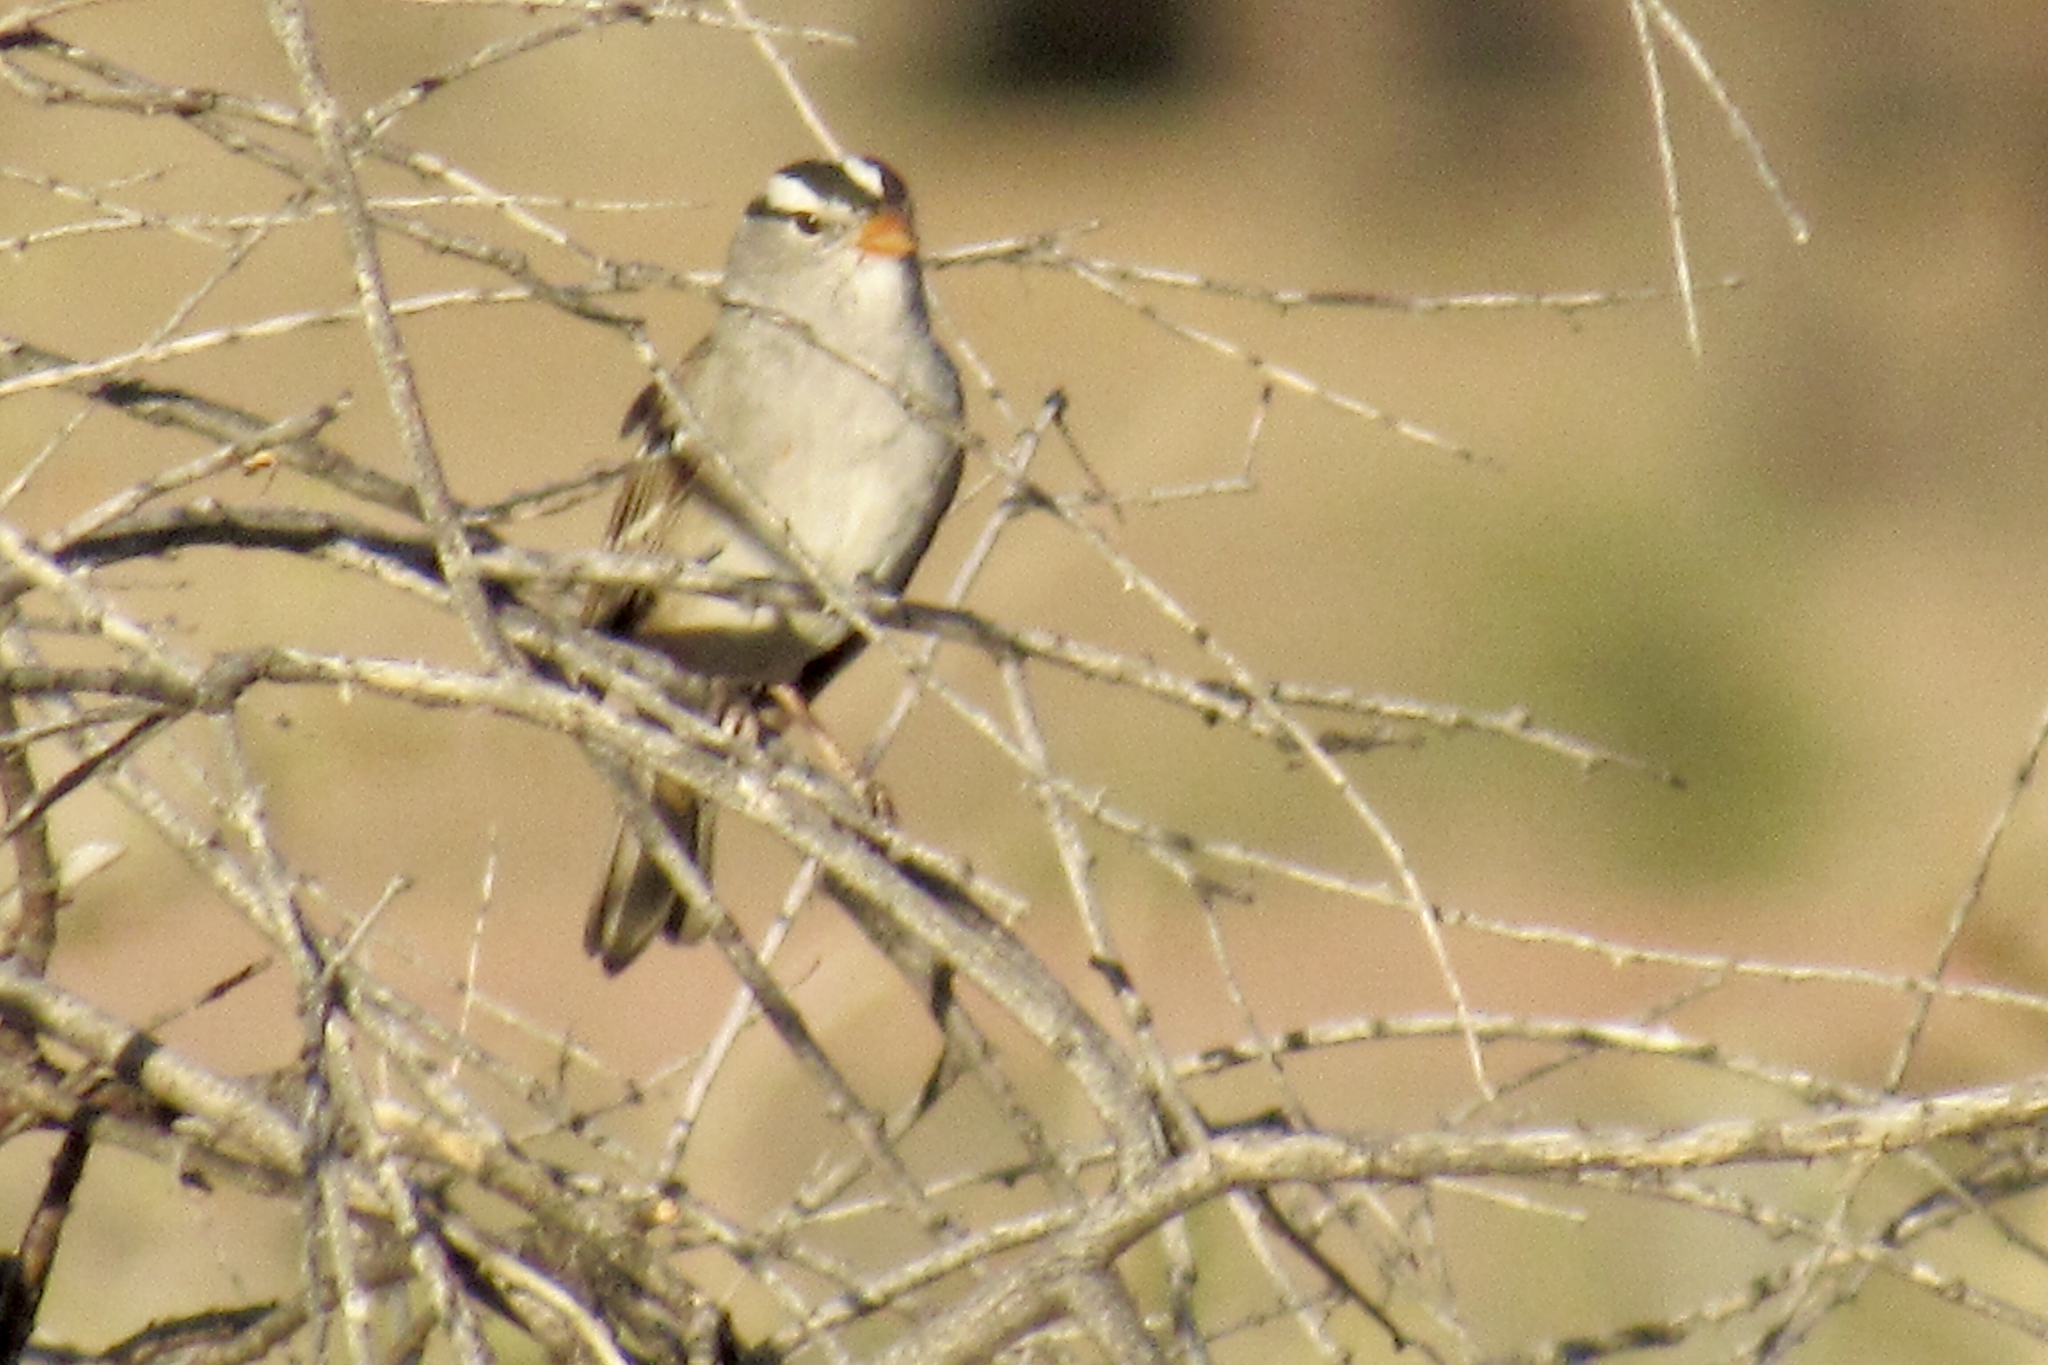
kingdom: Animalia
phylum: Chordata
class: Aves
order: Passeriformes
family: Passerellidae
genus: Zonotrichia
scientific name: Zonotrichia leucophrys
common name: White-crowned sparrow
